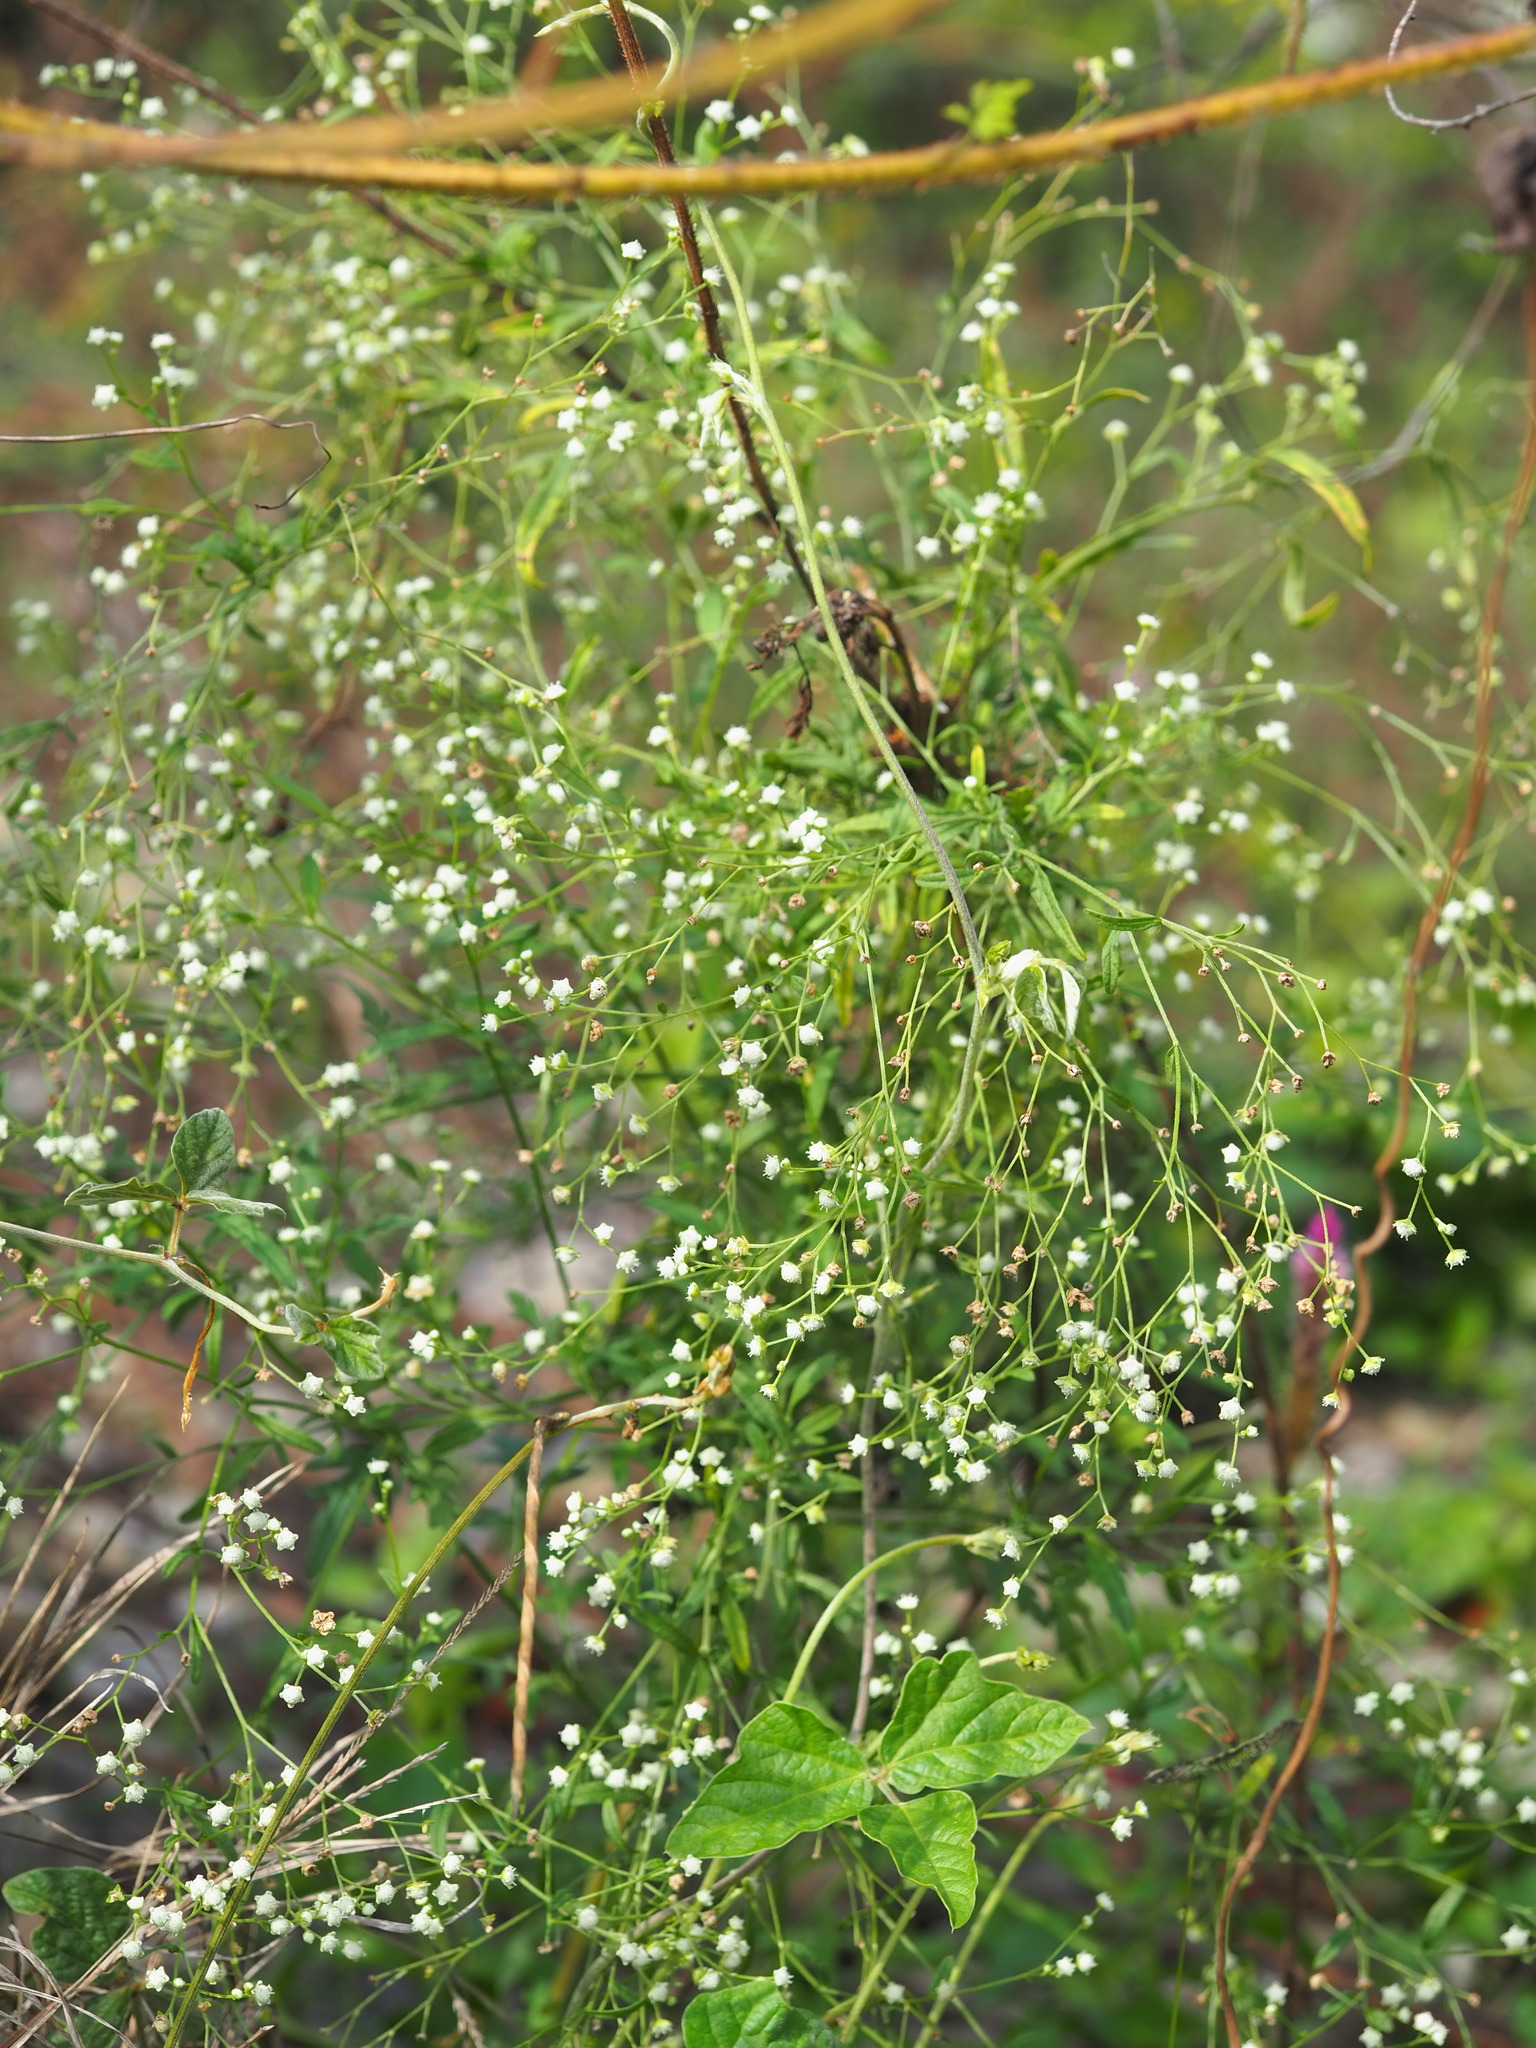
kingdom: Plantae
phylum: Tracheophyta
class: Magnoliopsida
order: Asterales
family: Asteraceae
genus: Parthenium
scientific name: Parthenium hysterophorus
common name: Santa maria feverfew
